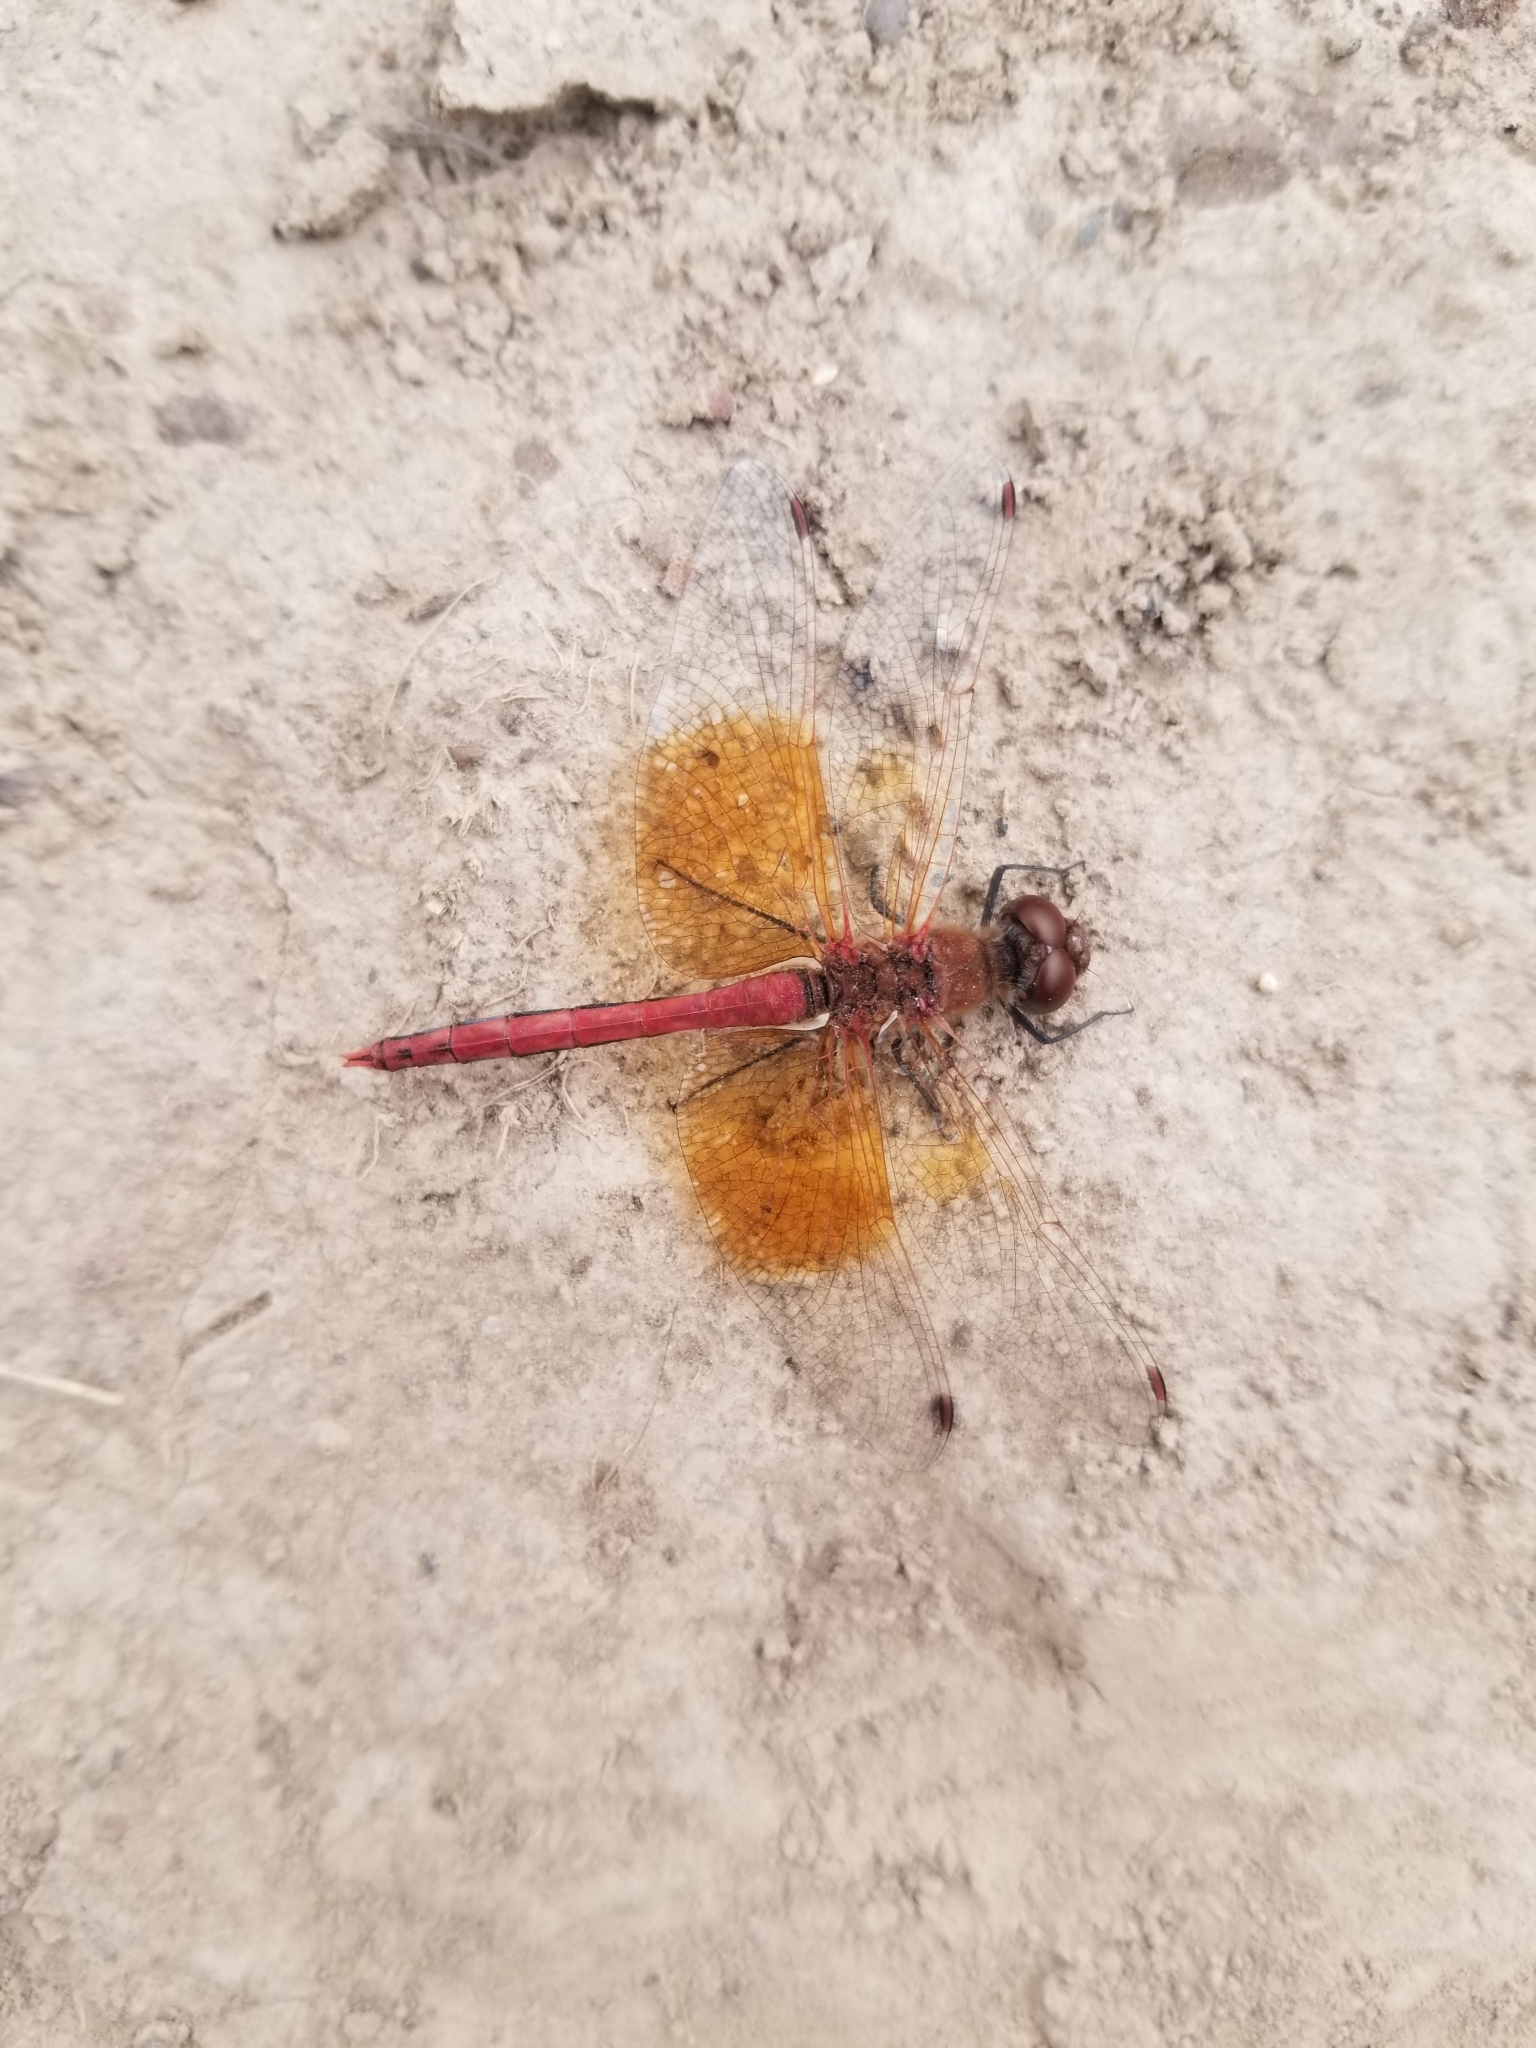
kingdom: Animalia
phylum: Arthropoda
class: Insecta
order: Odonata
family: Libellulidae
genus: Sympetrum
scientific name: Sympetrum semicinctum
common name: Band-winged meadowhawk
